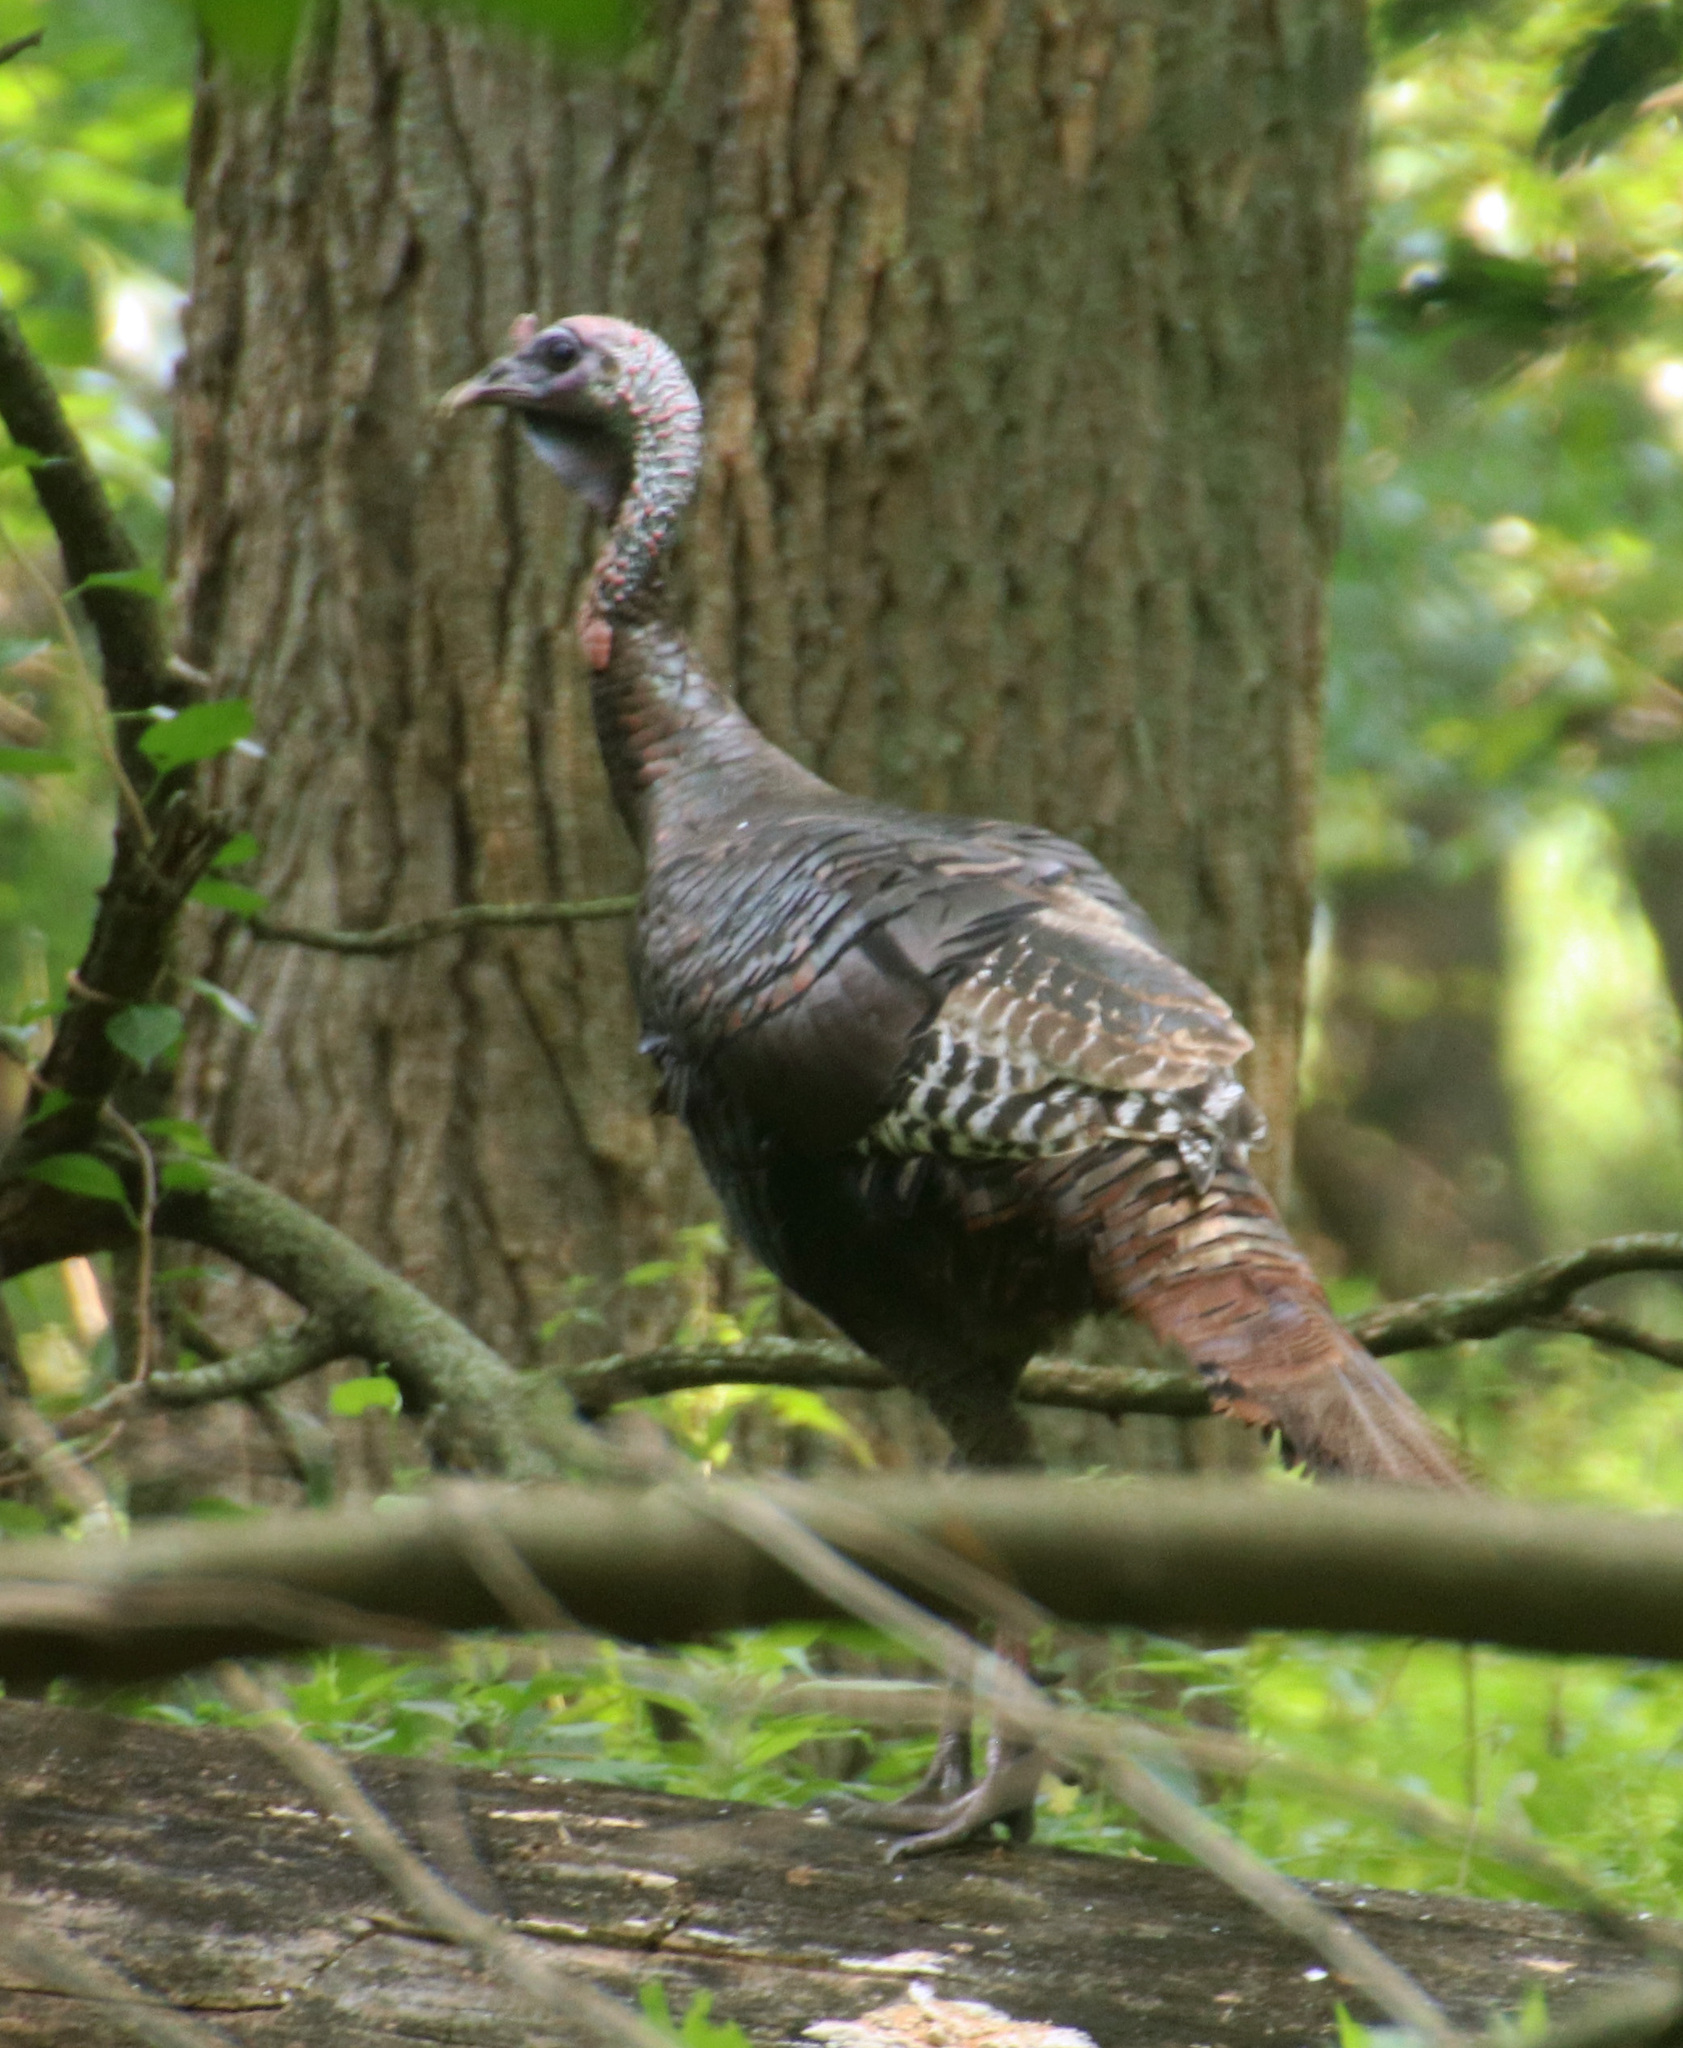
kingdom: Animalia
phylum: Chordata
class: Aves
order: Galliformes
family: Phasianidae
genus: Meleagris
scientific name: Meleagris gallopavo
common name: Wild turkey
